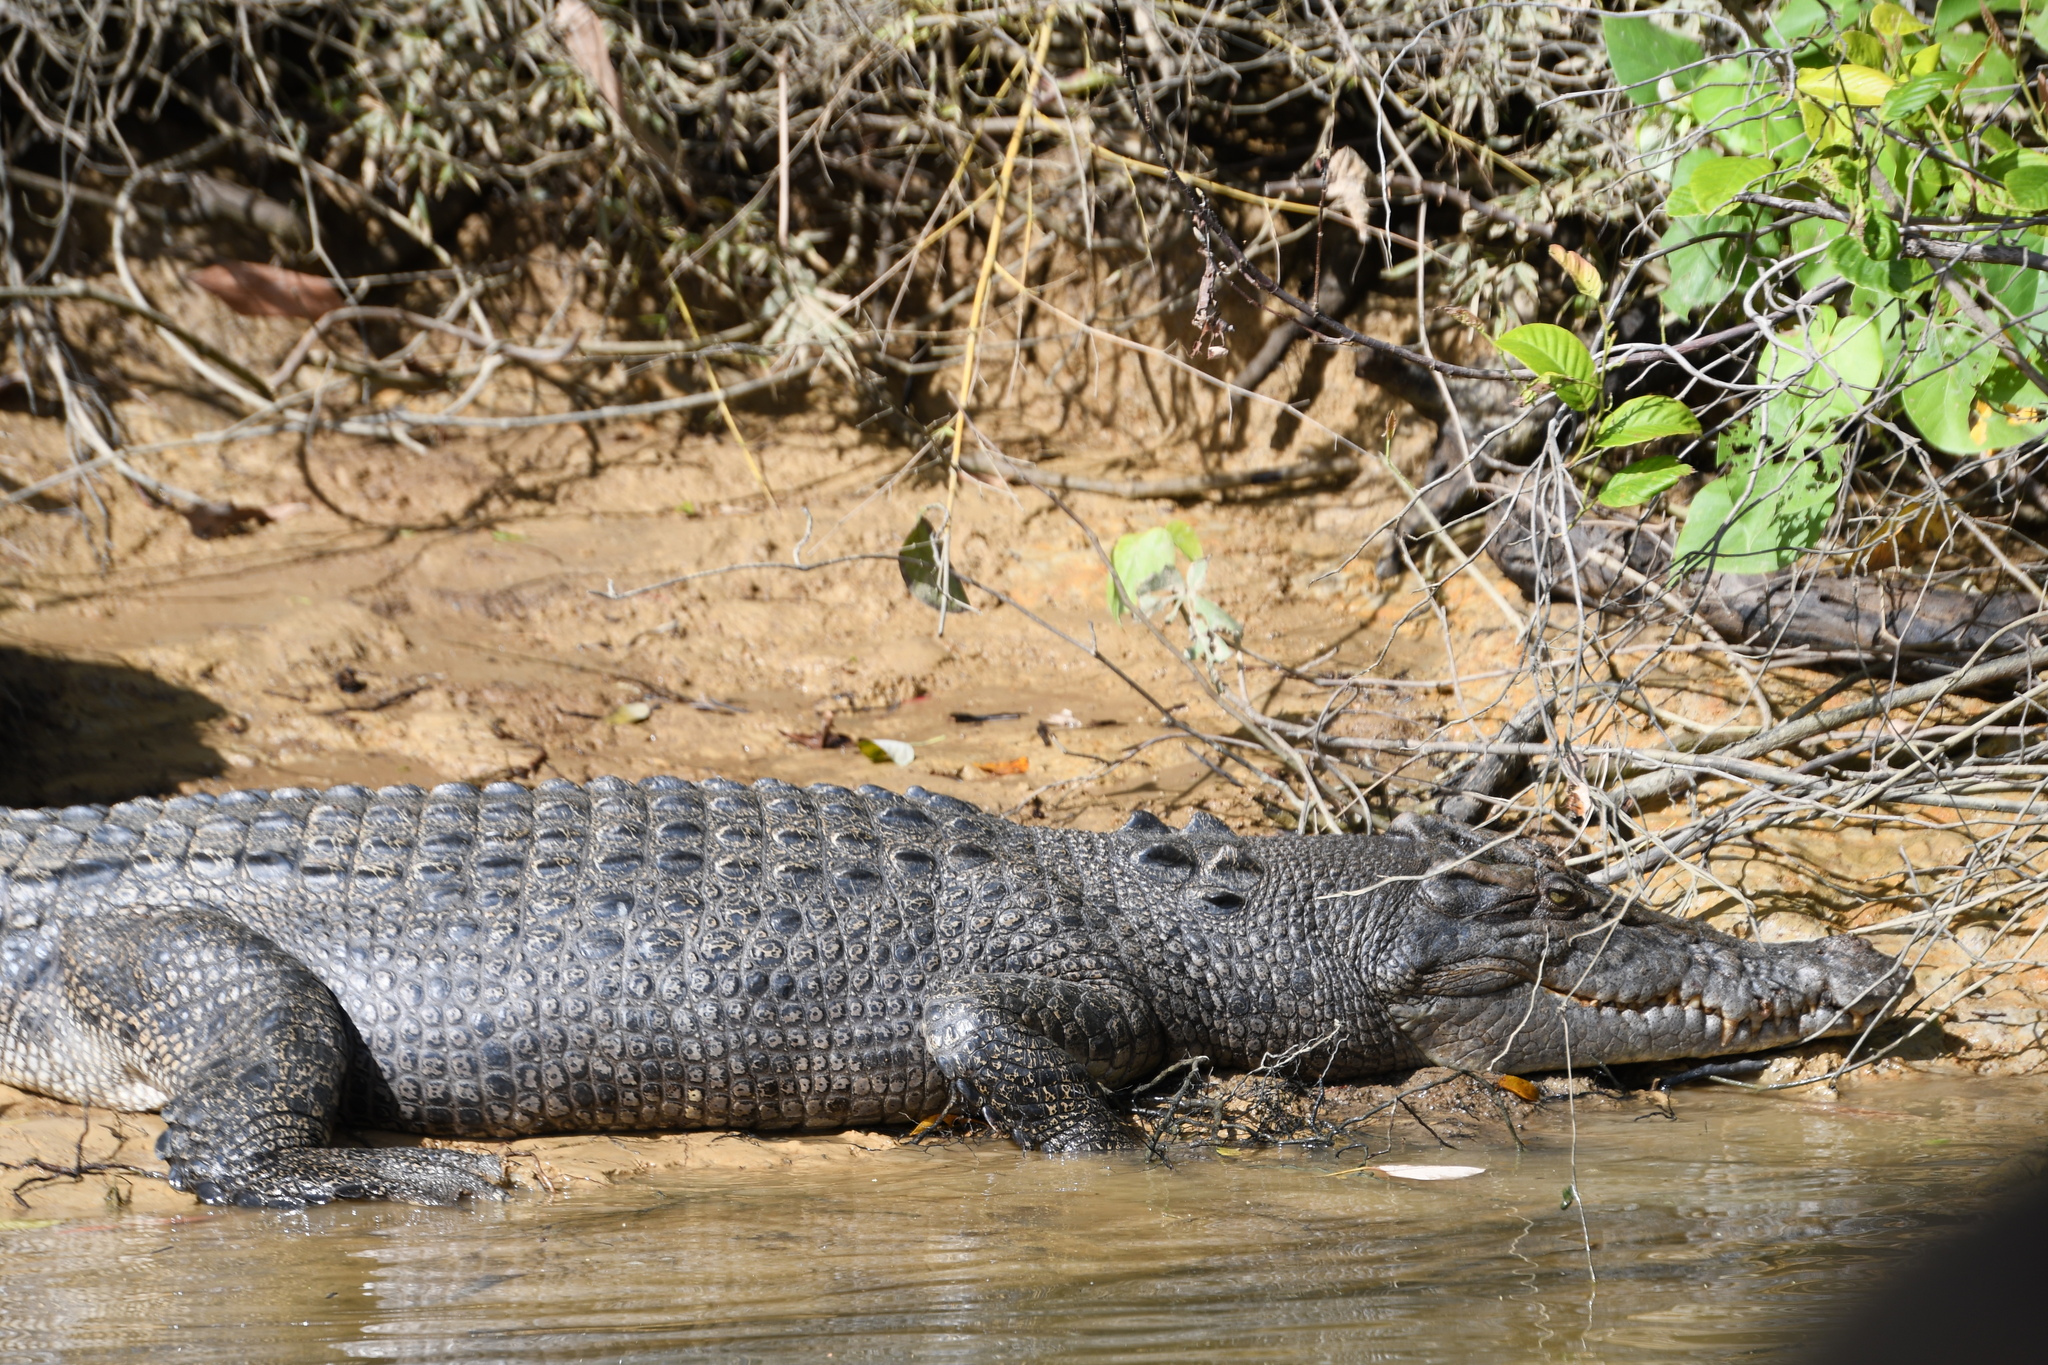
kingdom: Animalia
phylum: Chordata
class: Crocodylia
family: Crocodylidae
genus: Crocodylus
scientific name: Crocodylus porosus
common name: Saltwater crocodile
